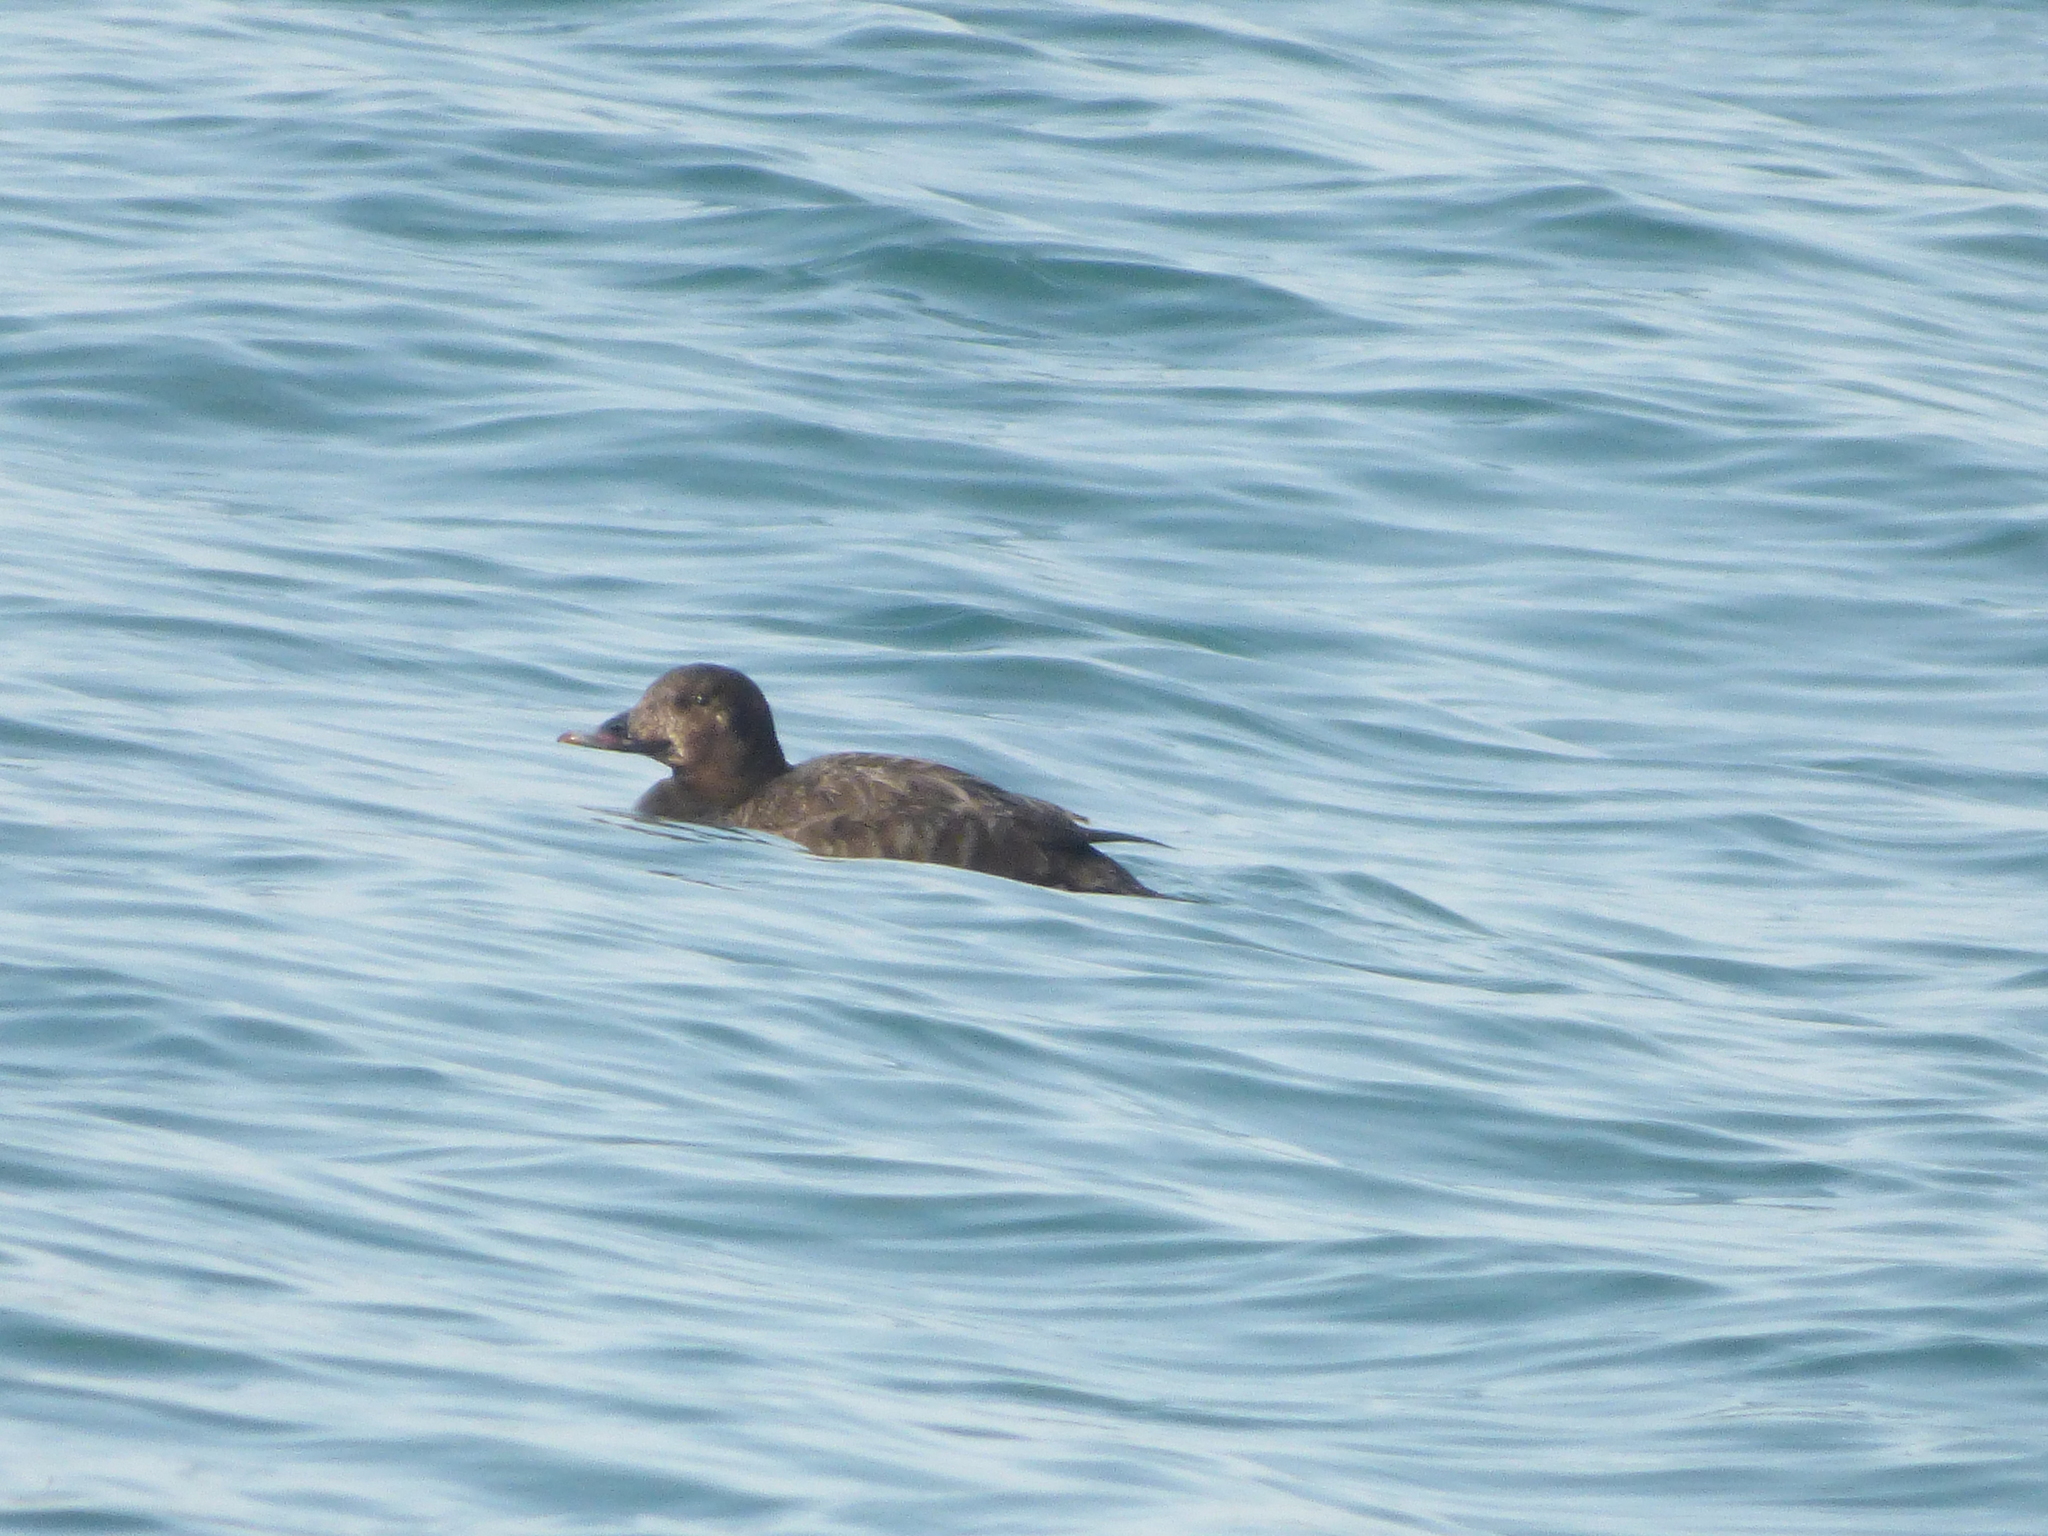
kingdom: Animalia
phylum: Chordata
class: Aves
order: Anseriformes
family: Anatidae
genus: Melanitta
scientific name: Melanitta deglandi
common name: White-winged scoter
